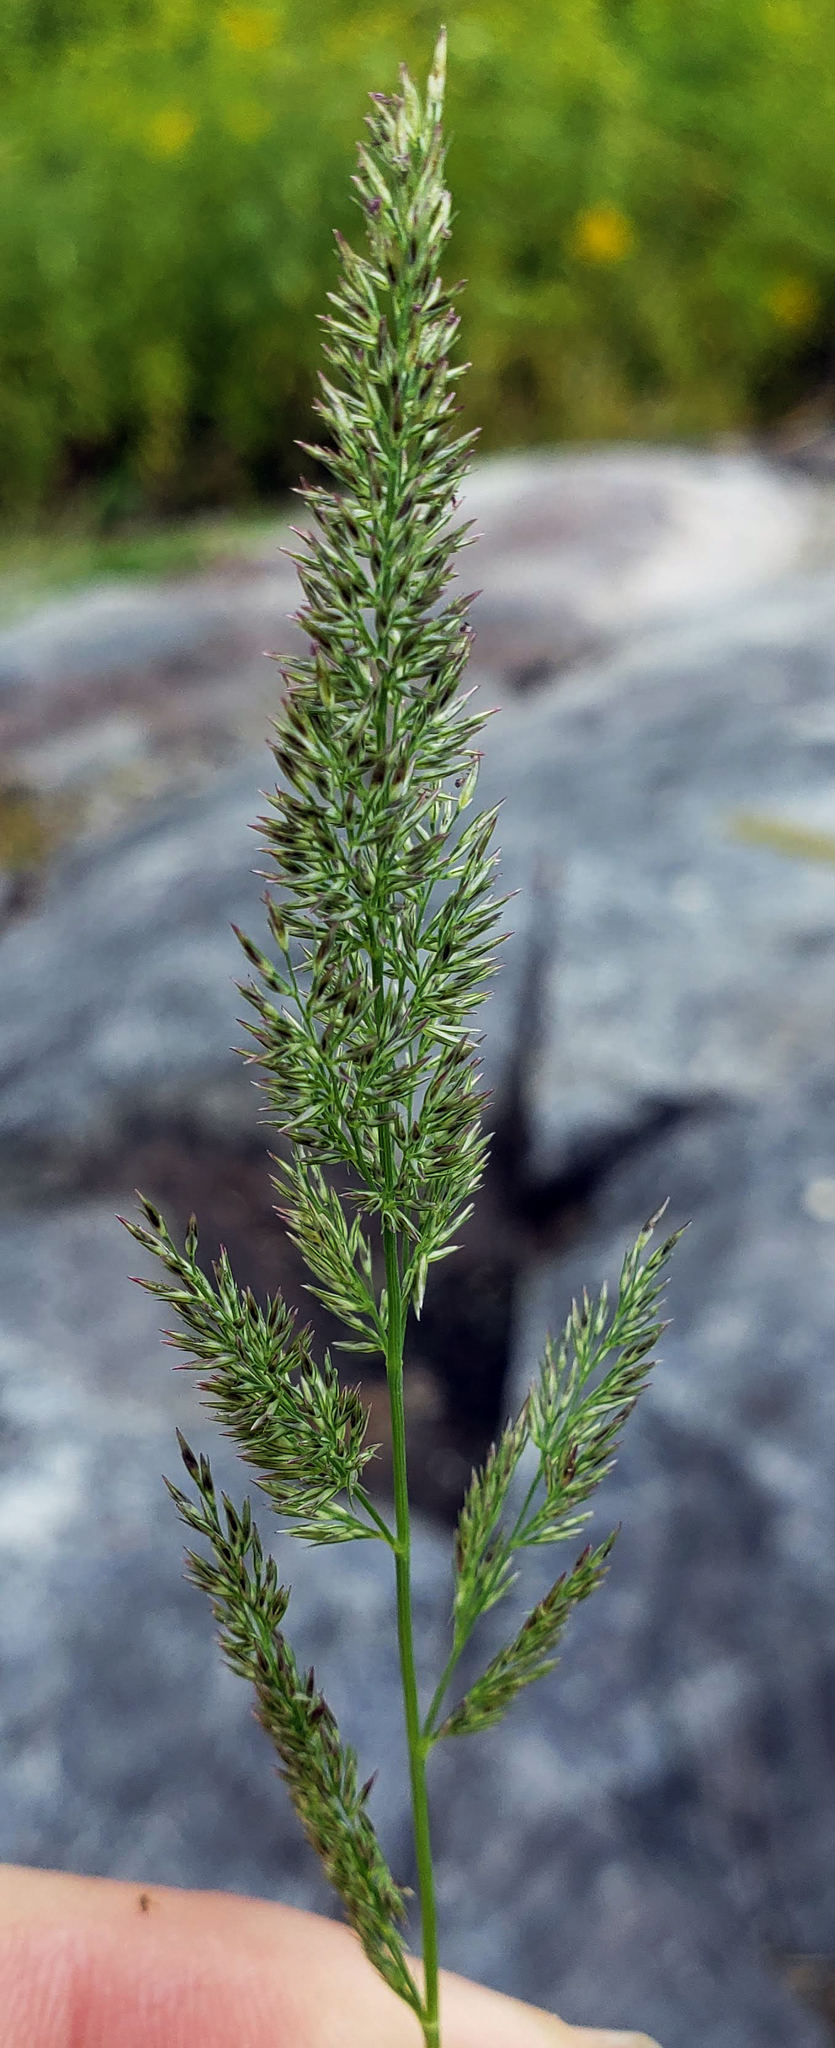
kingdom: Plantae
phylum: Tracheophyta
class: Liliopsida
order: Poales
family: Poaceae
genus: Muhlenbergia
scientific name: Muhlenbergia frondosa
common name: Common satingrass
